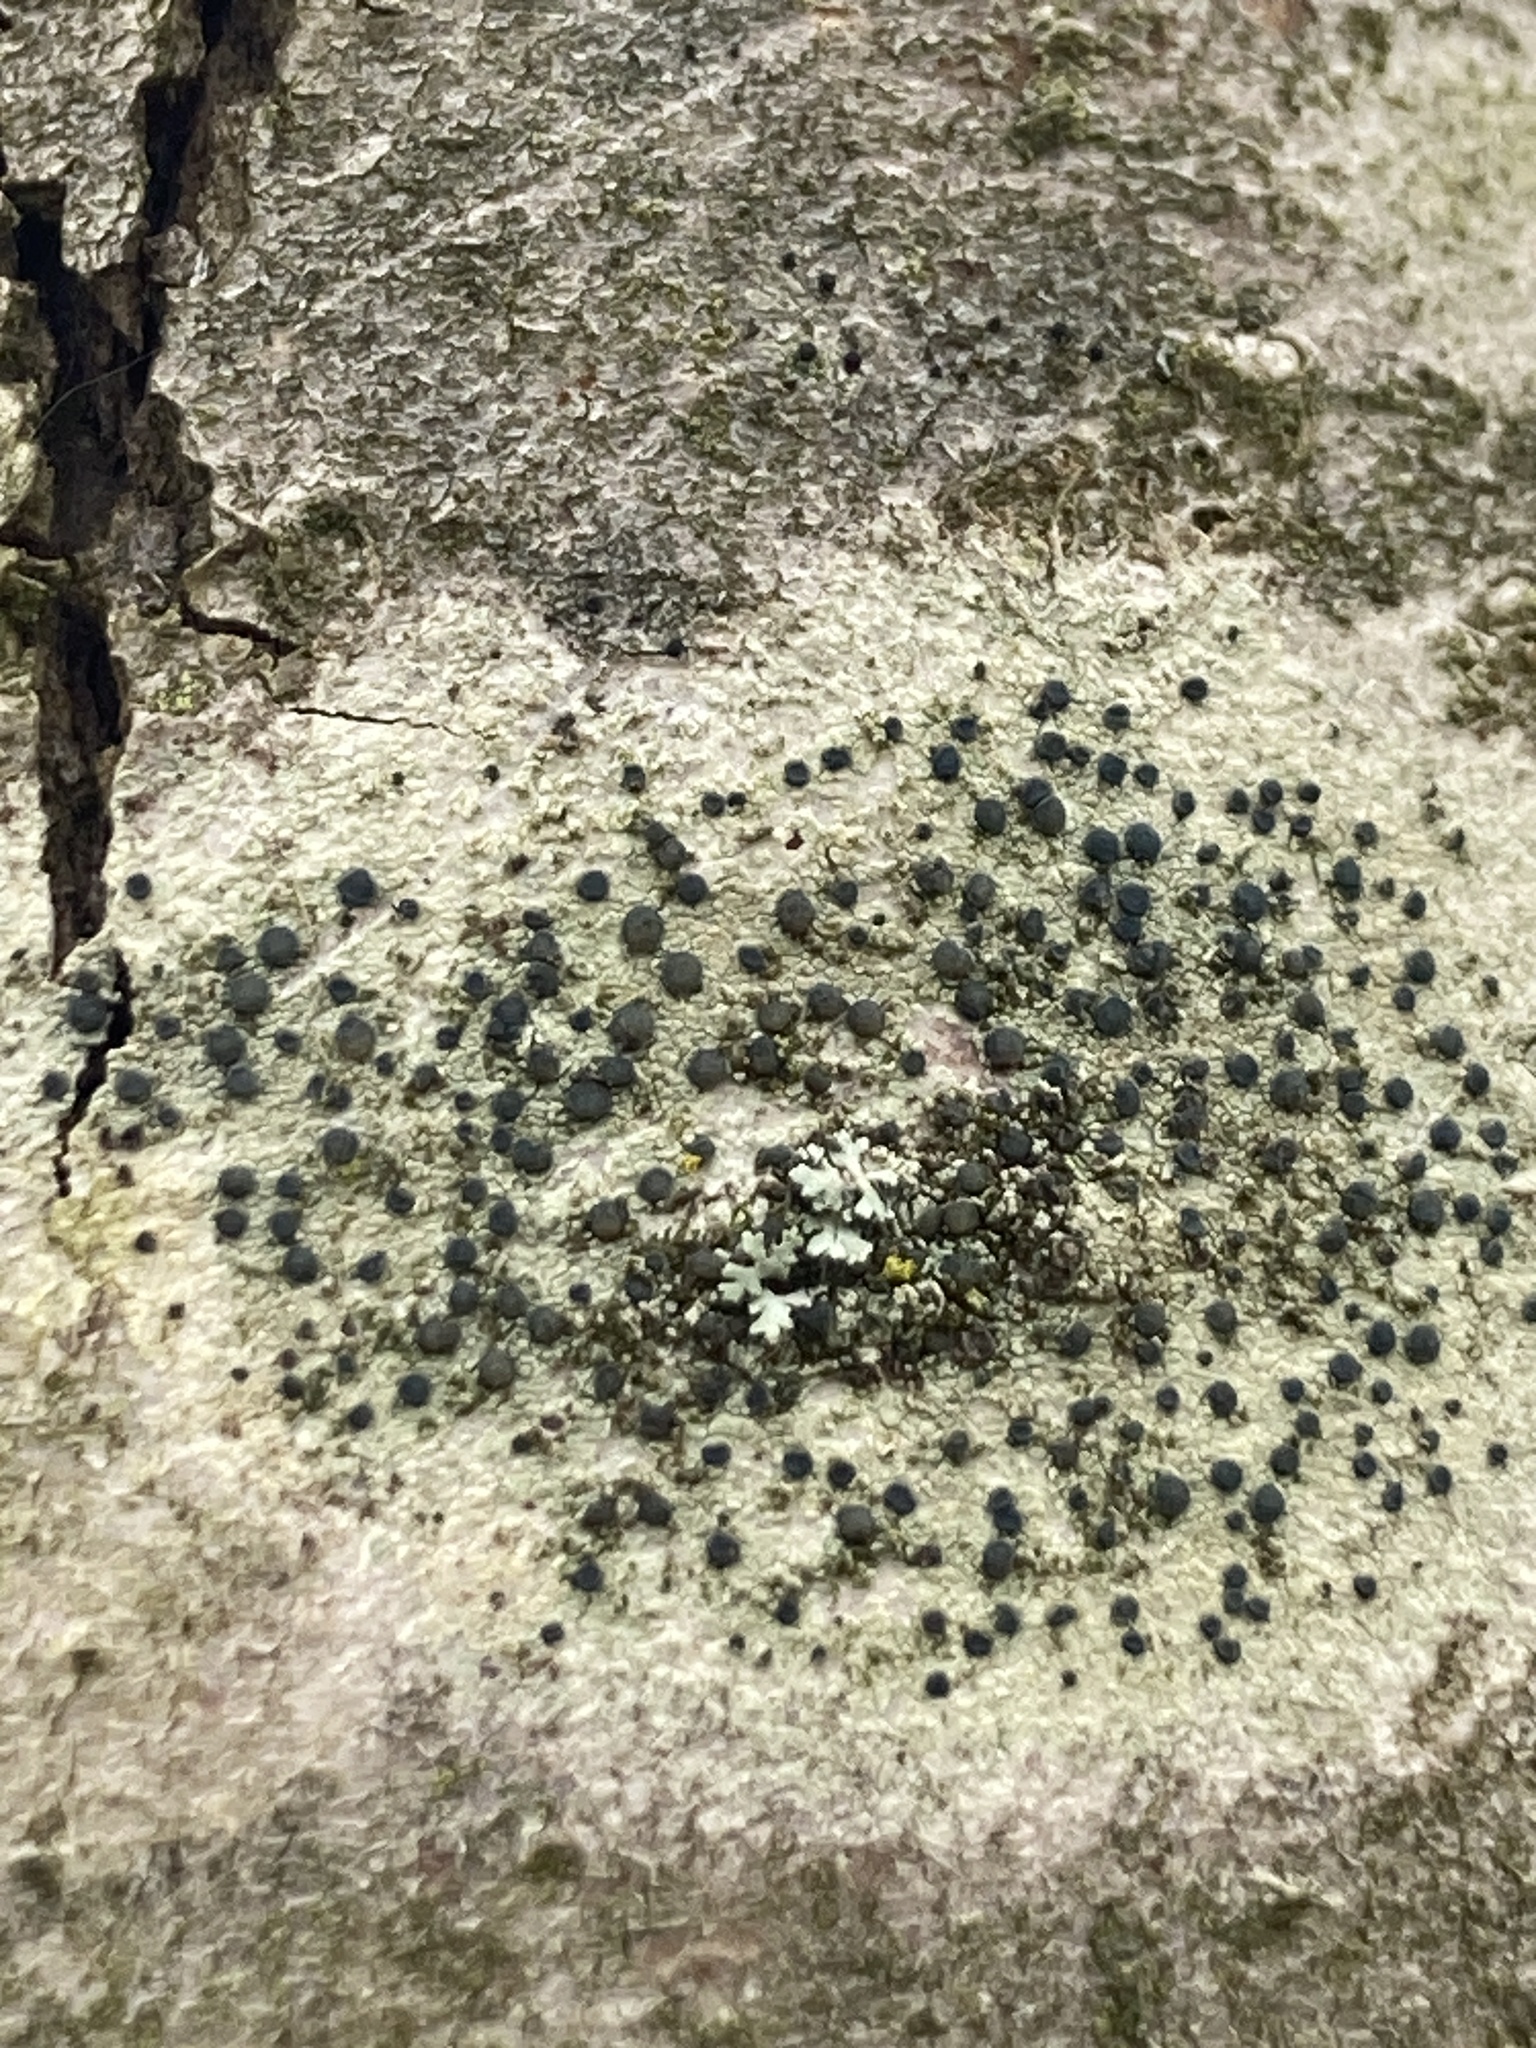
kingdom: Fungi
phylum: Ascomycota
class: Lecanoromycetes
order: Lecanorales
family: Lecanoraceae
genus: Lecidella
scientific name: Lecidella elaeochroma
